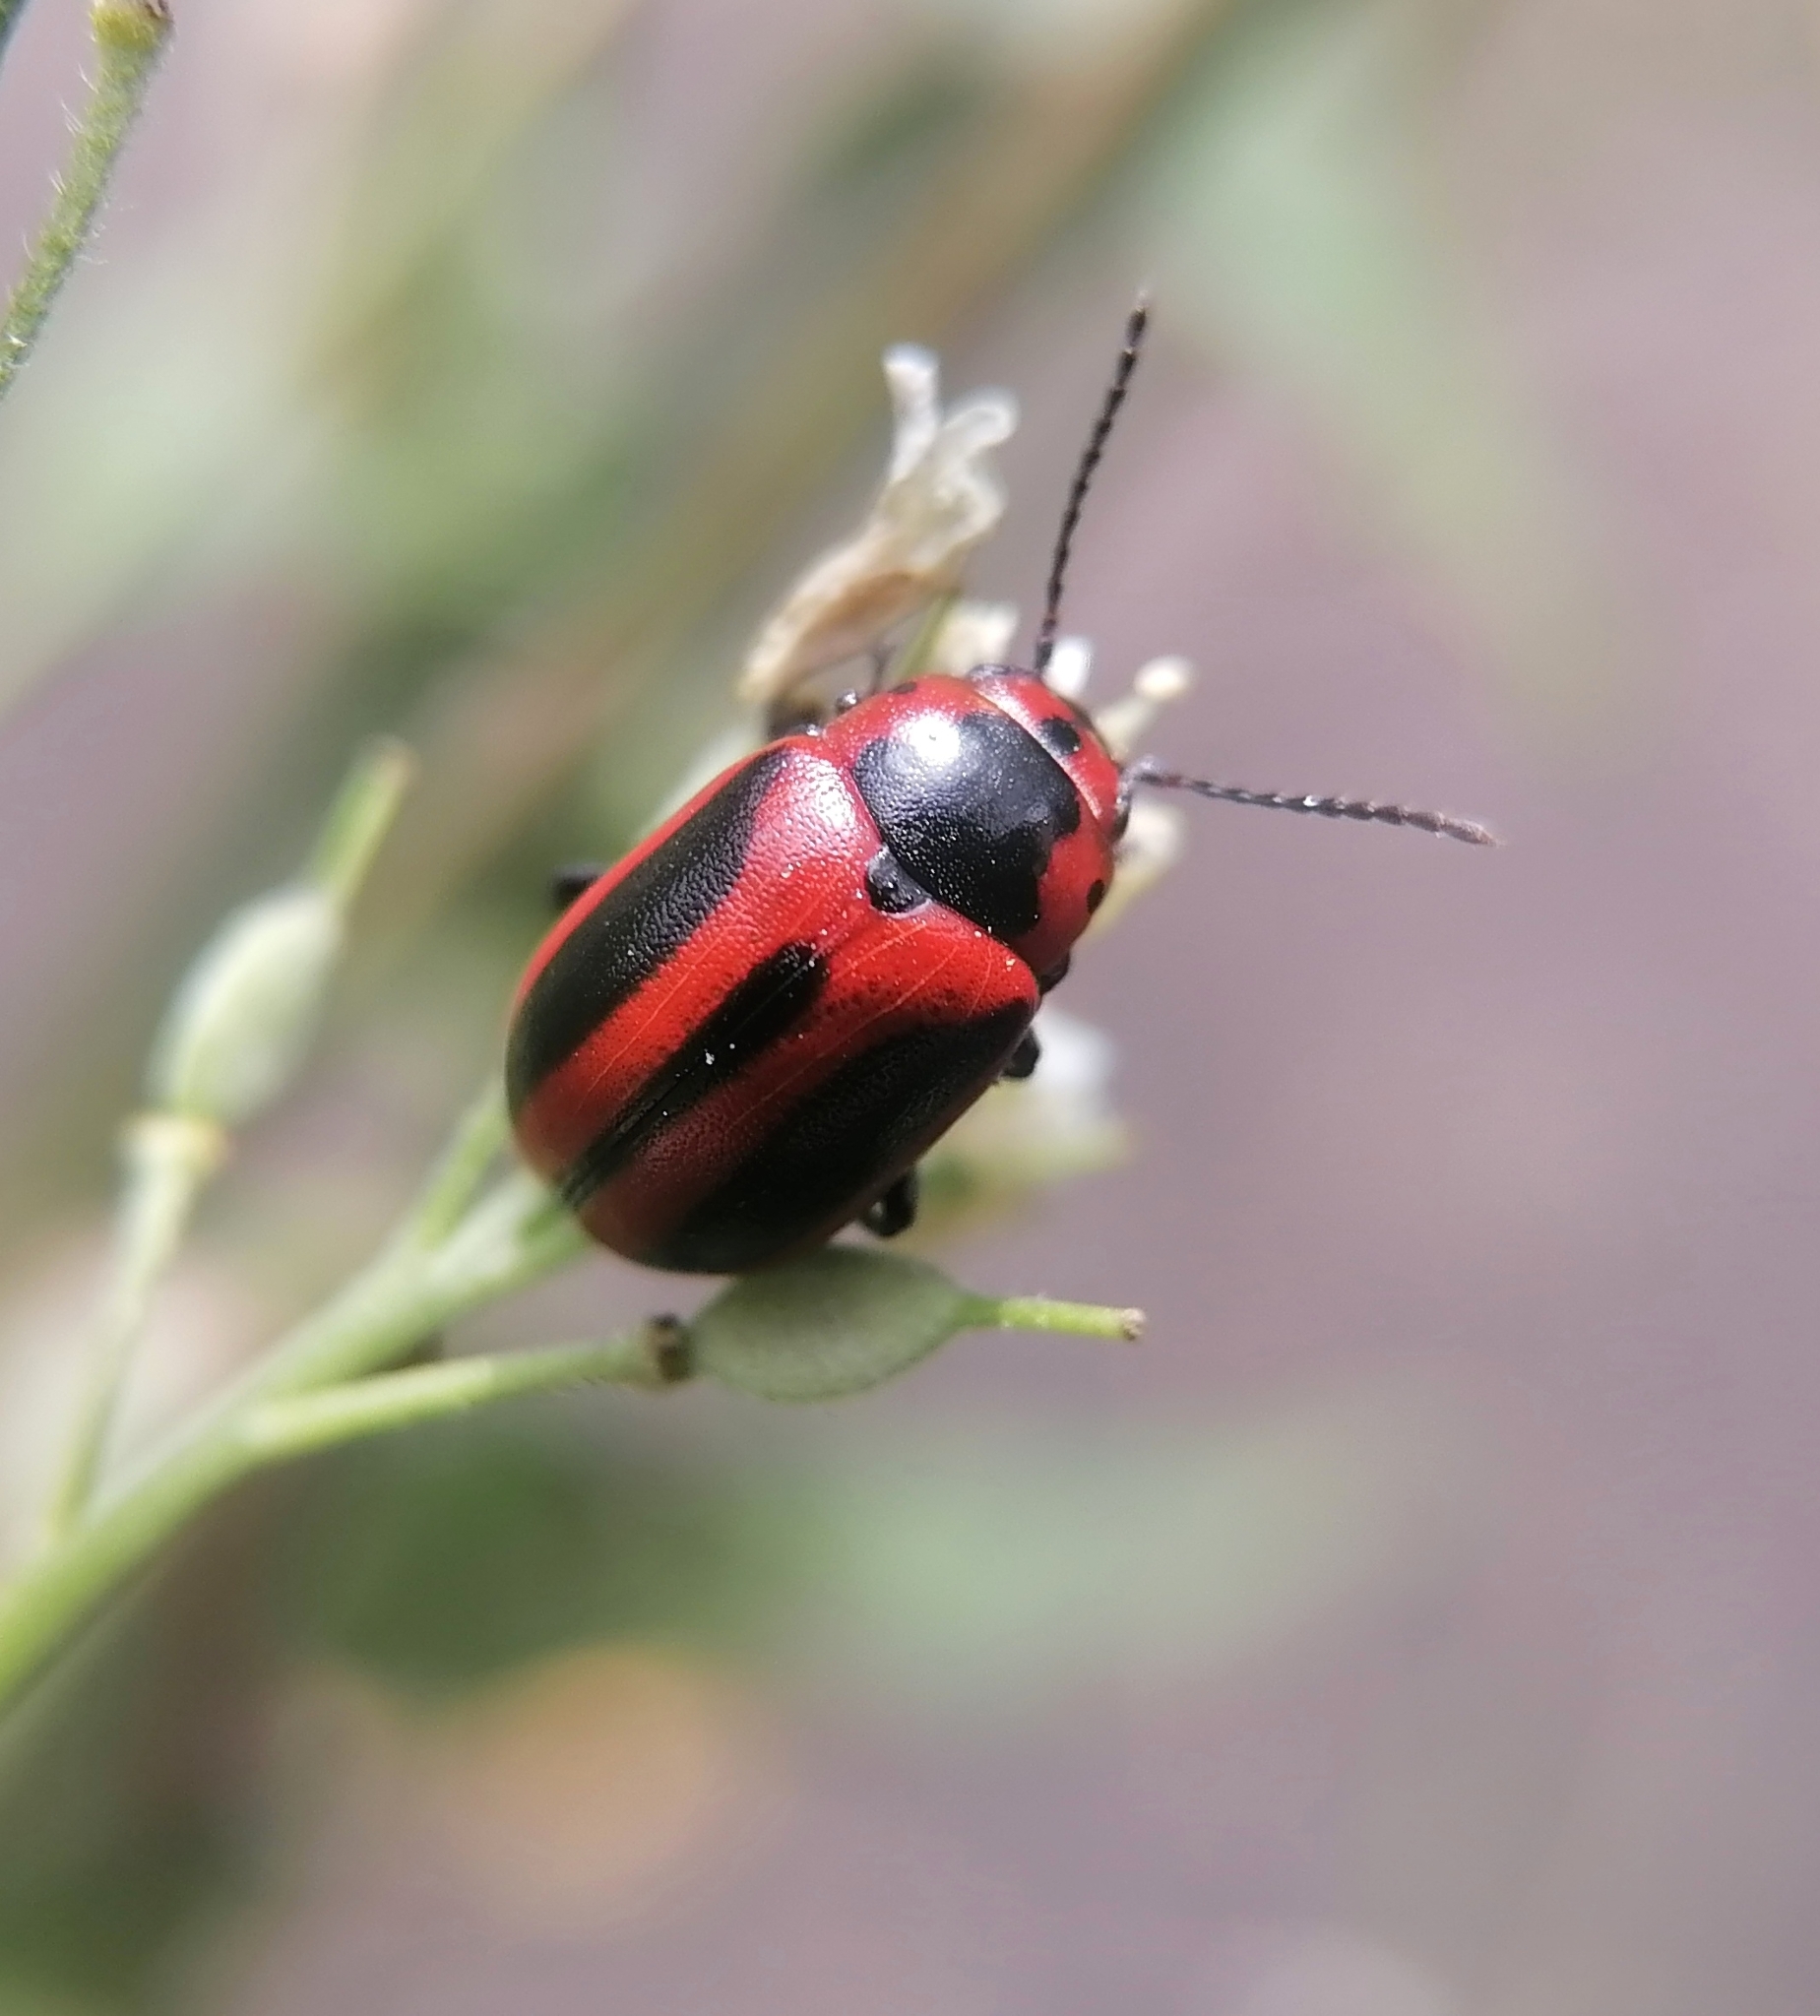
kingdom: Animalia
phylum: Arthropoda
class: Insecta
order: Coleoptera
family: Chrysomelidae
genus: Entomoscelis
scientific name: Entomoscelis adonidis
